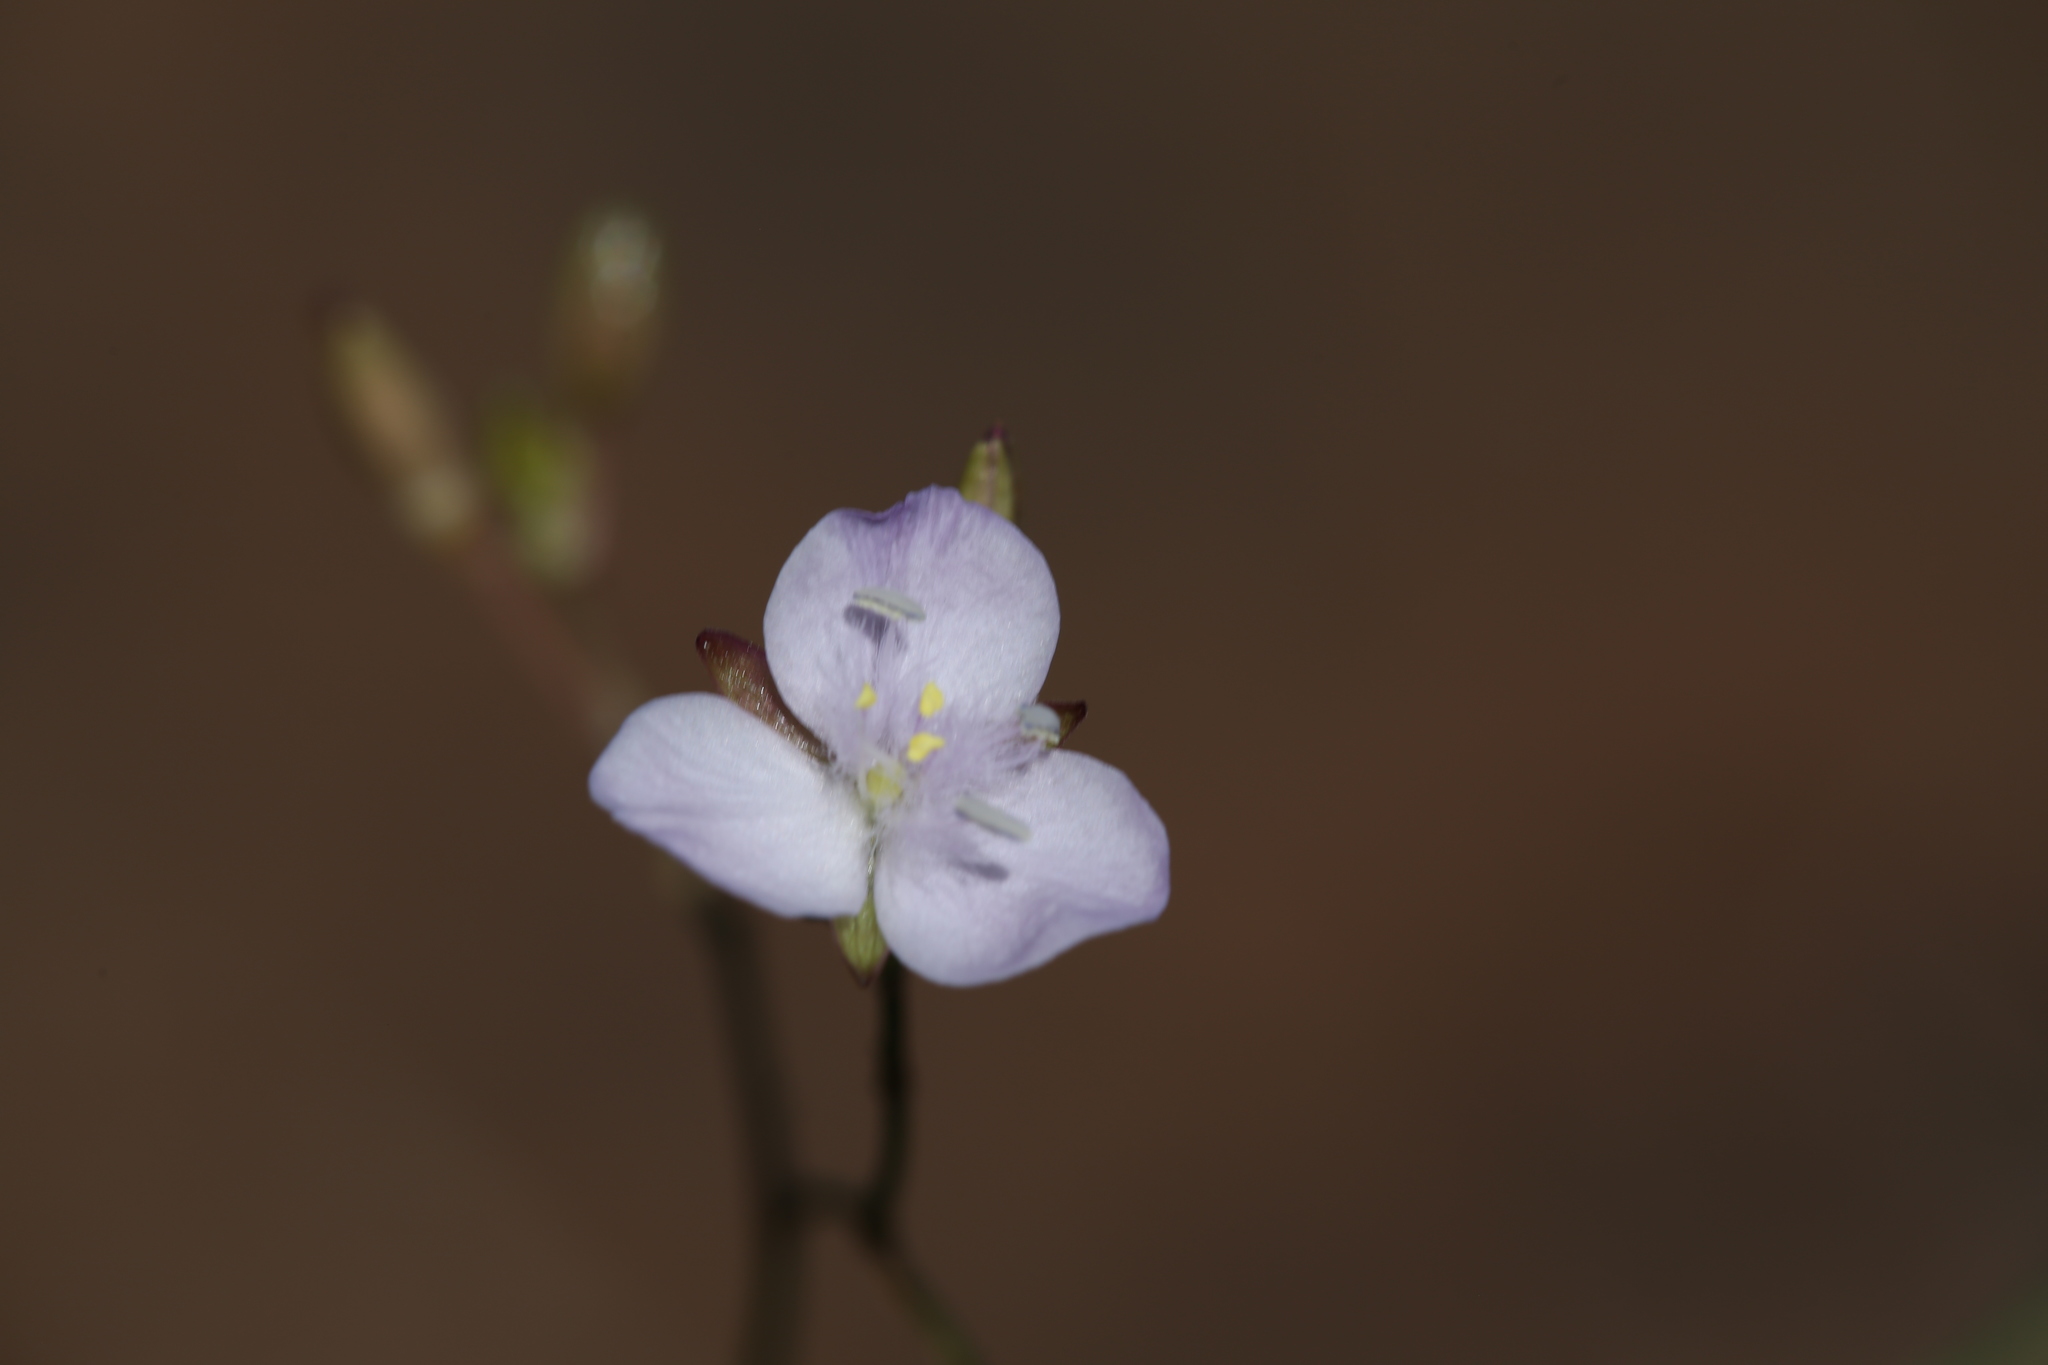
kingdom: Plantae
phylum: Tracheophyta
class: Liliopsida
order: Commelinales
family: Commelinaceae
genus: Murdannia
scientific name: Murdannia graminea
